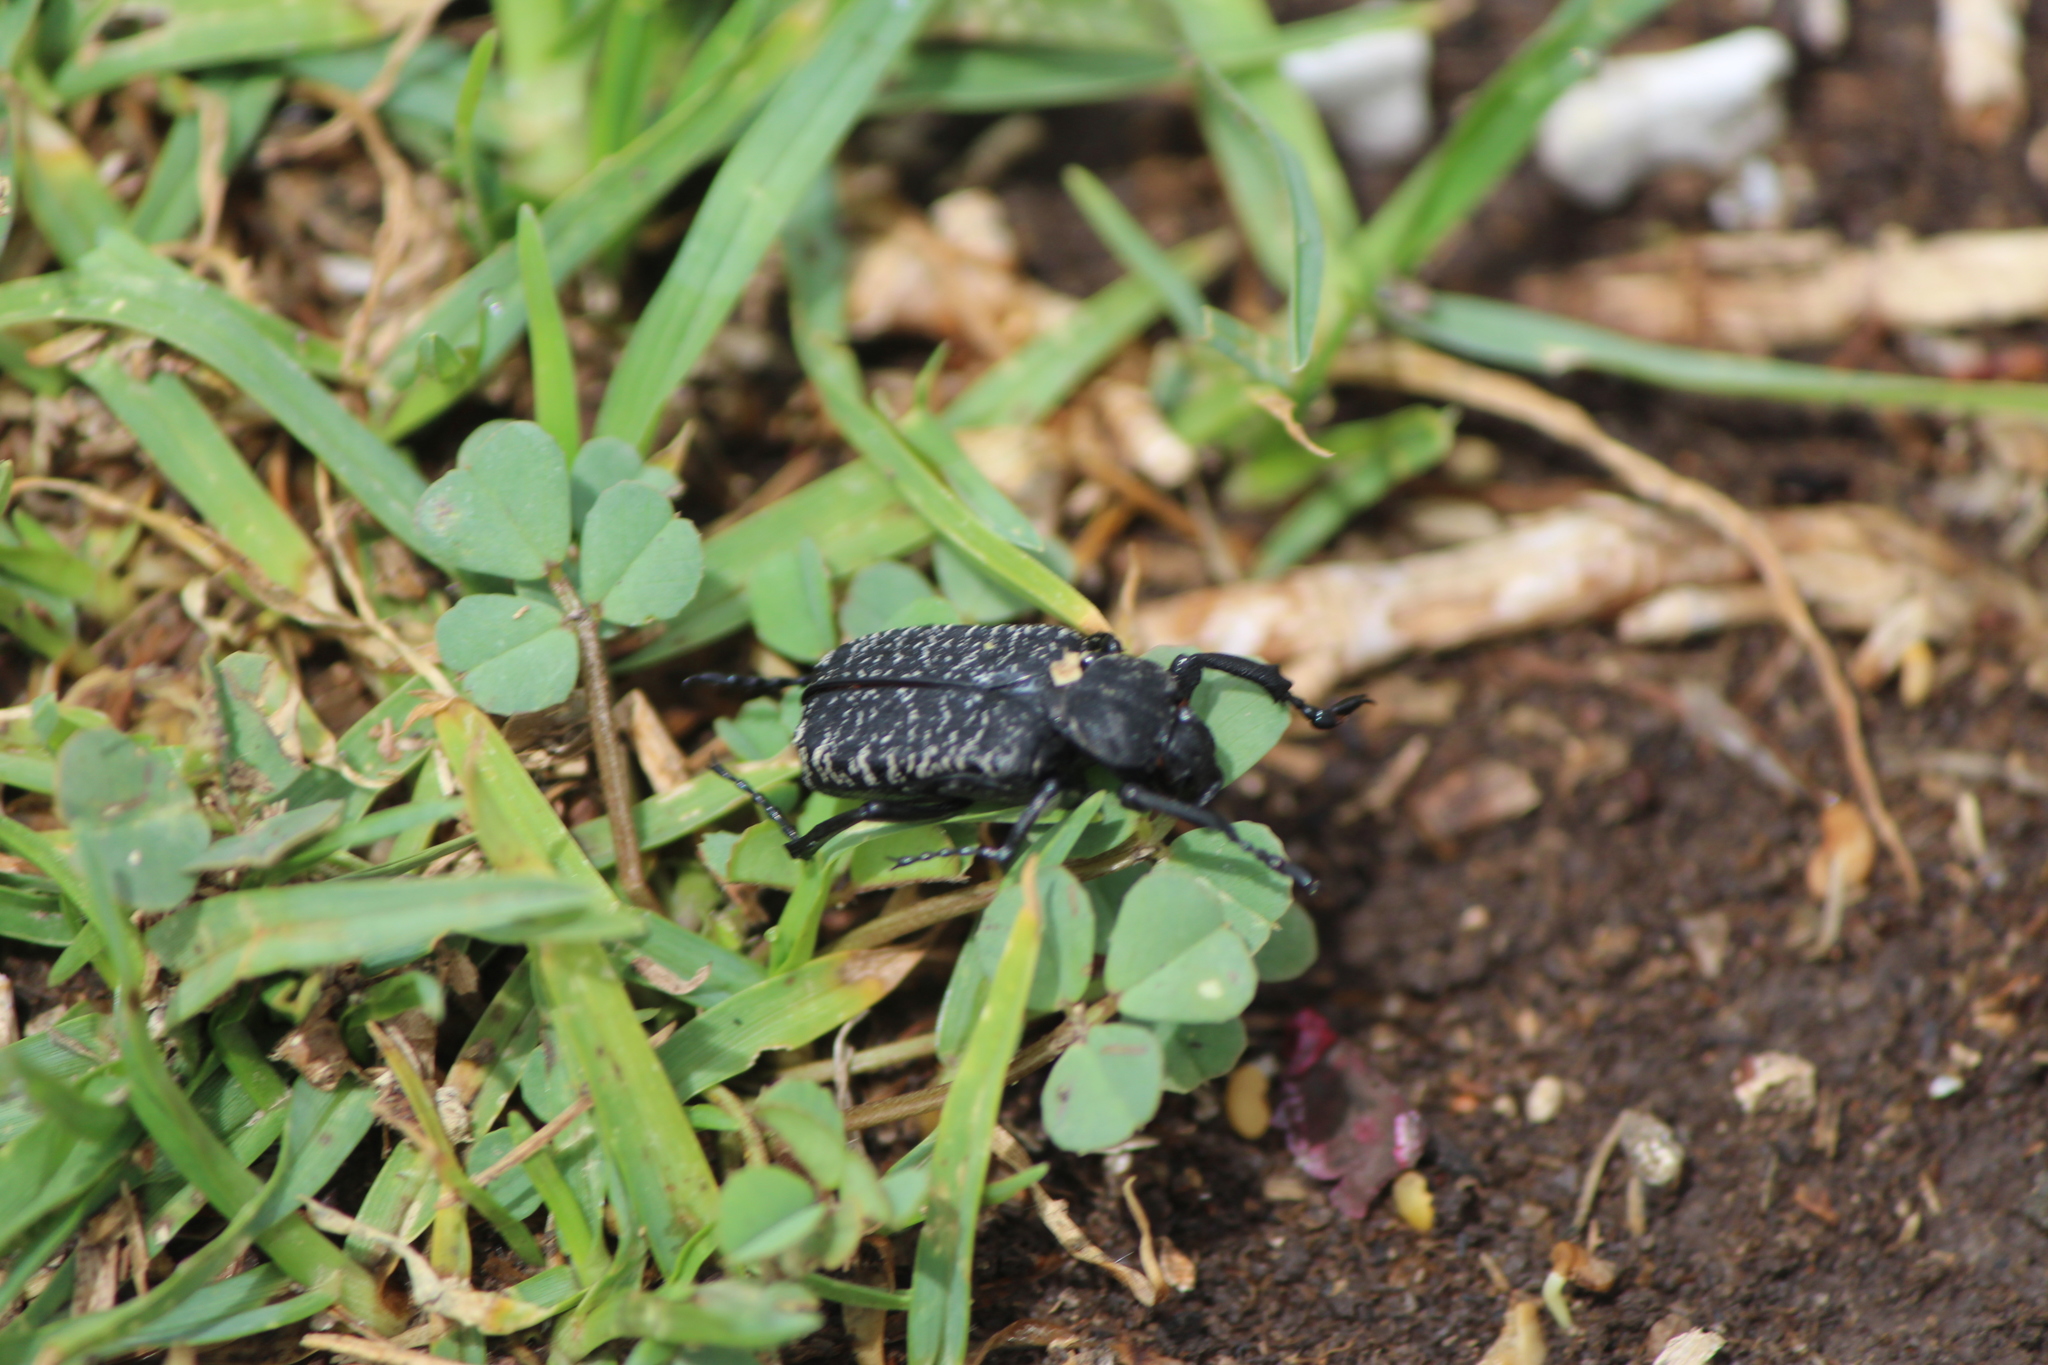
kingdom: Animalia
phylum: Arthropoda
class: Insecta
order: Coleoptera
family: Scarabaeidae
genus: Cremastocheilus
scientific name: Cremastocheilus planatus
